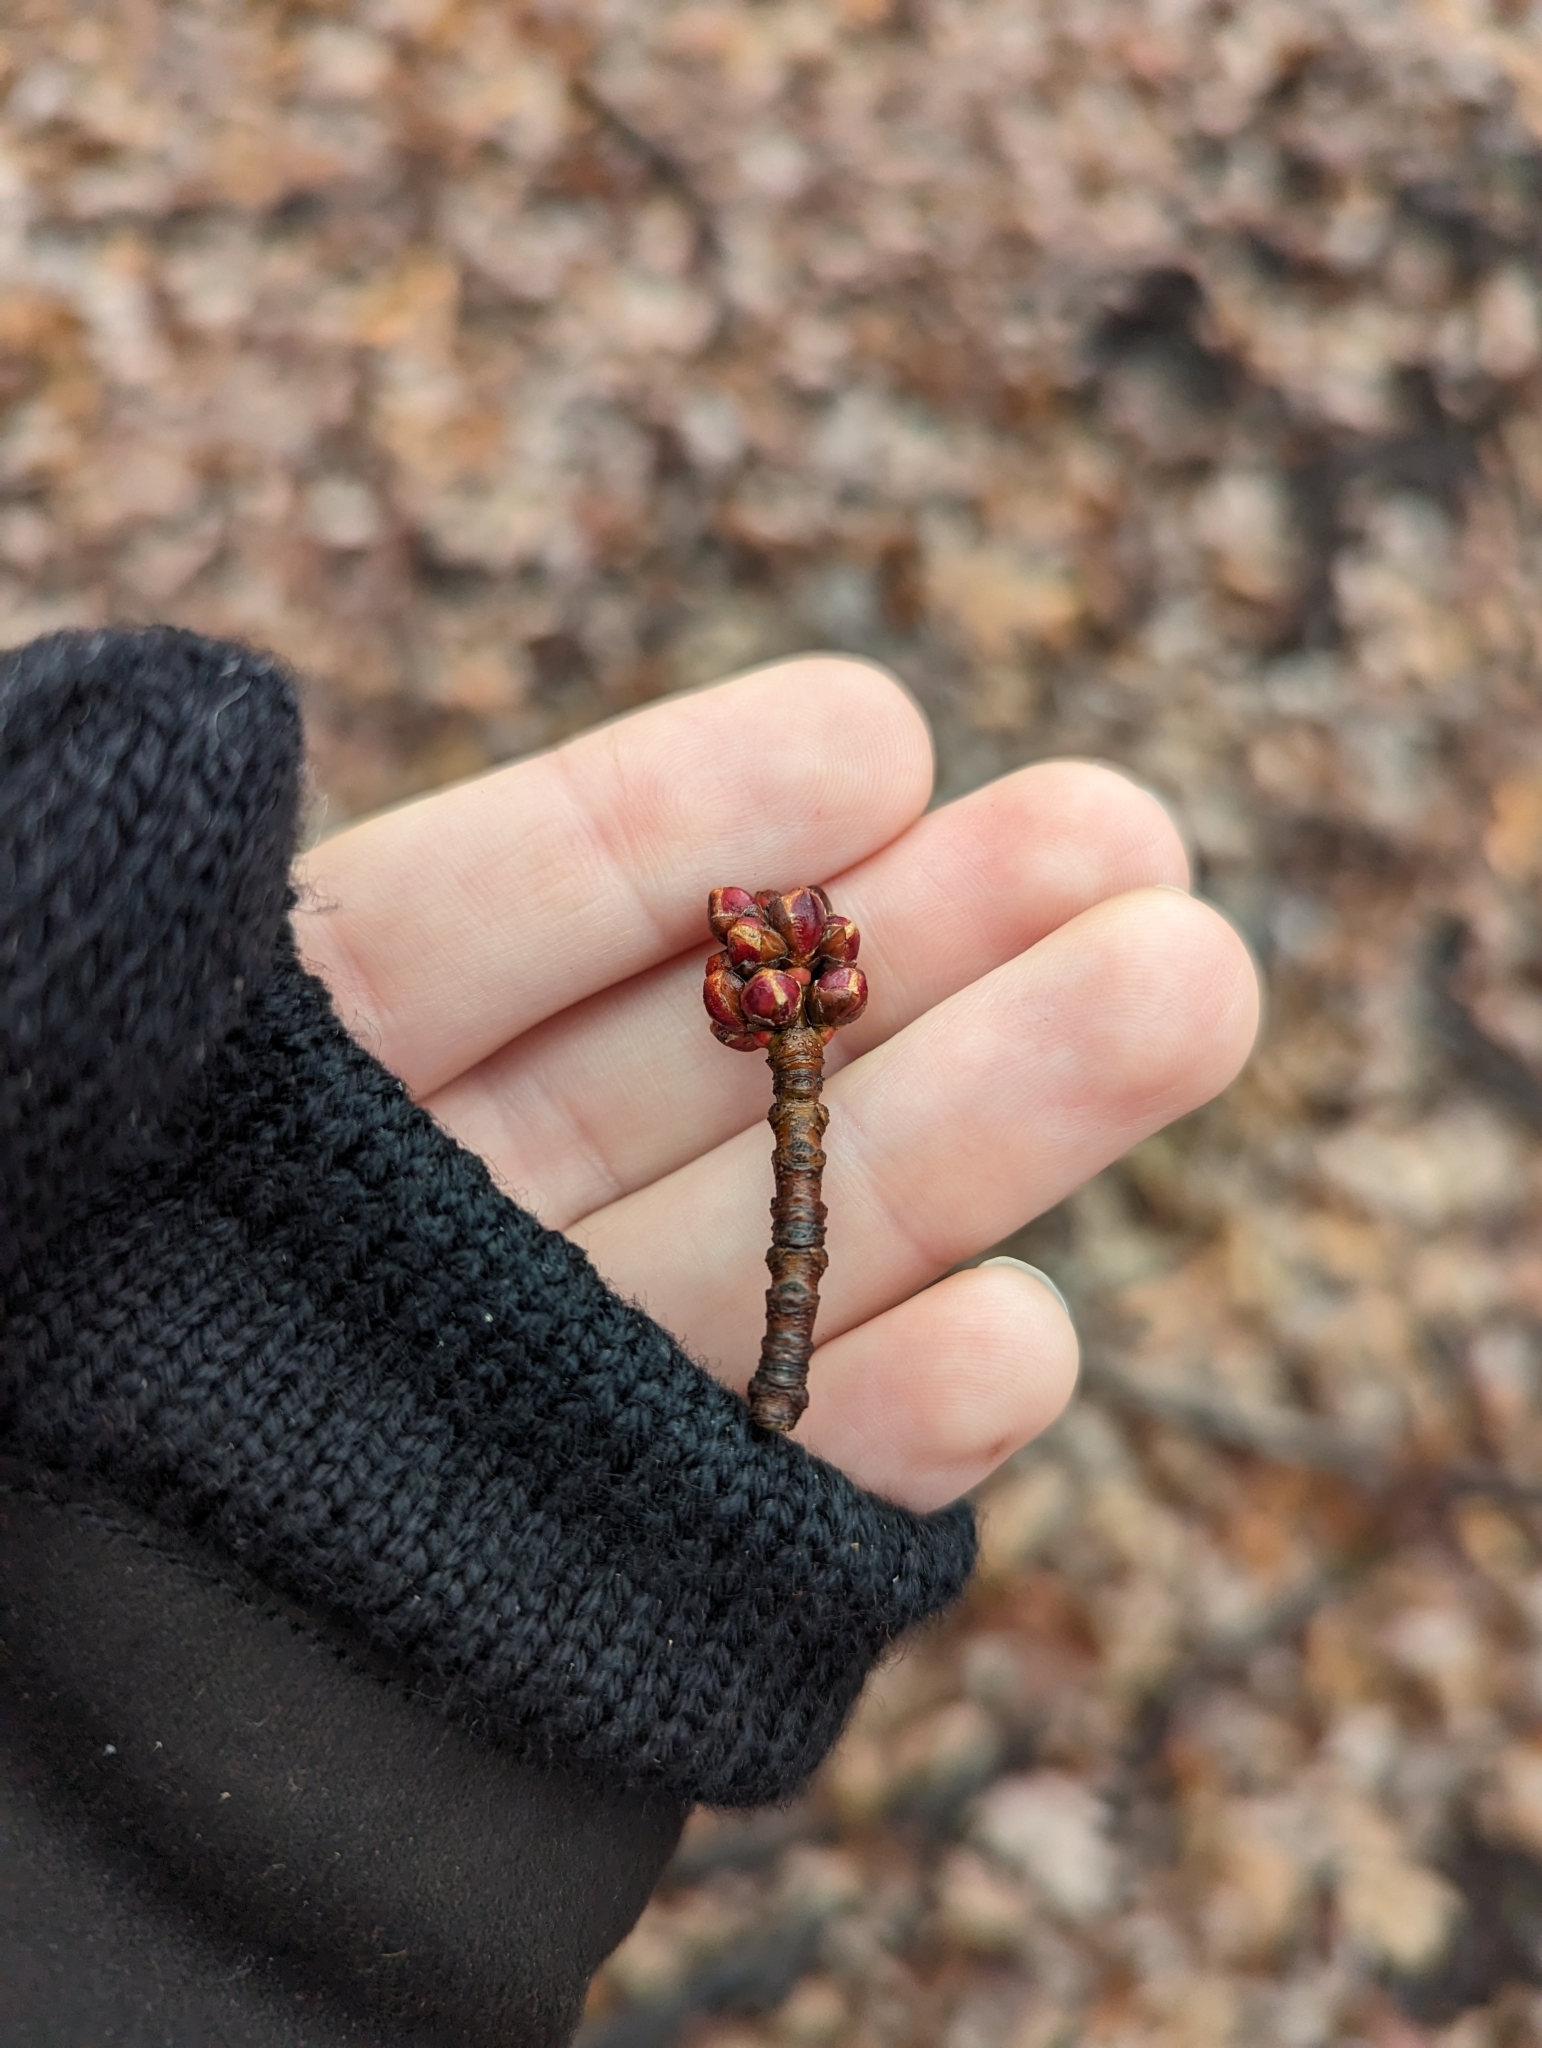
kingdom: Plantae
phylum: Tracheophyta
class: Magnoliopsida
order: Sapindales
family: Sapindaceae
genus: Acer
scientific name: Acer rubrum
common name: Red maple
